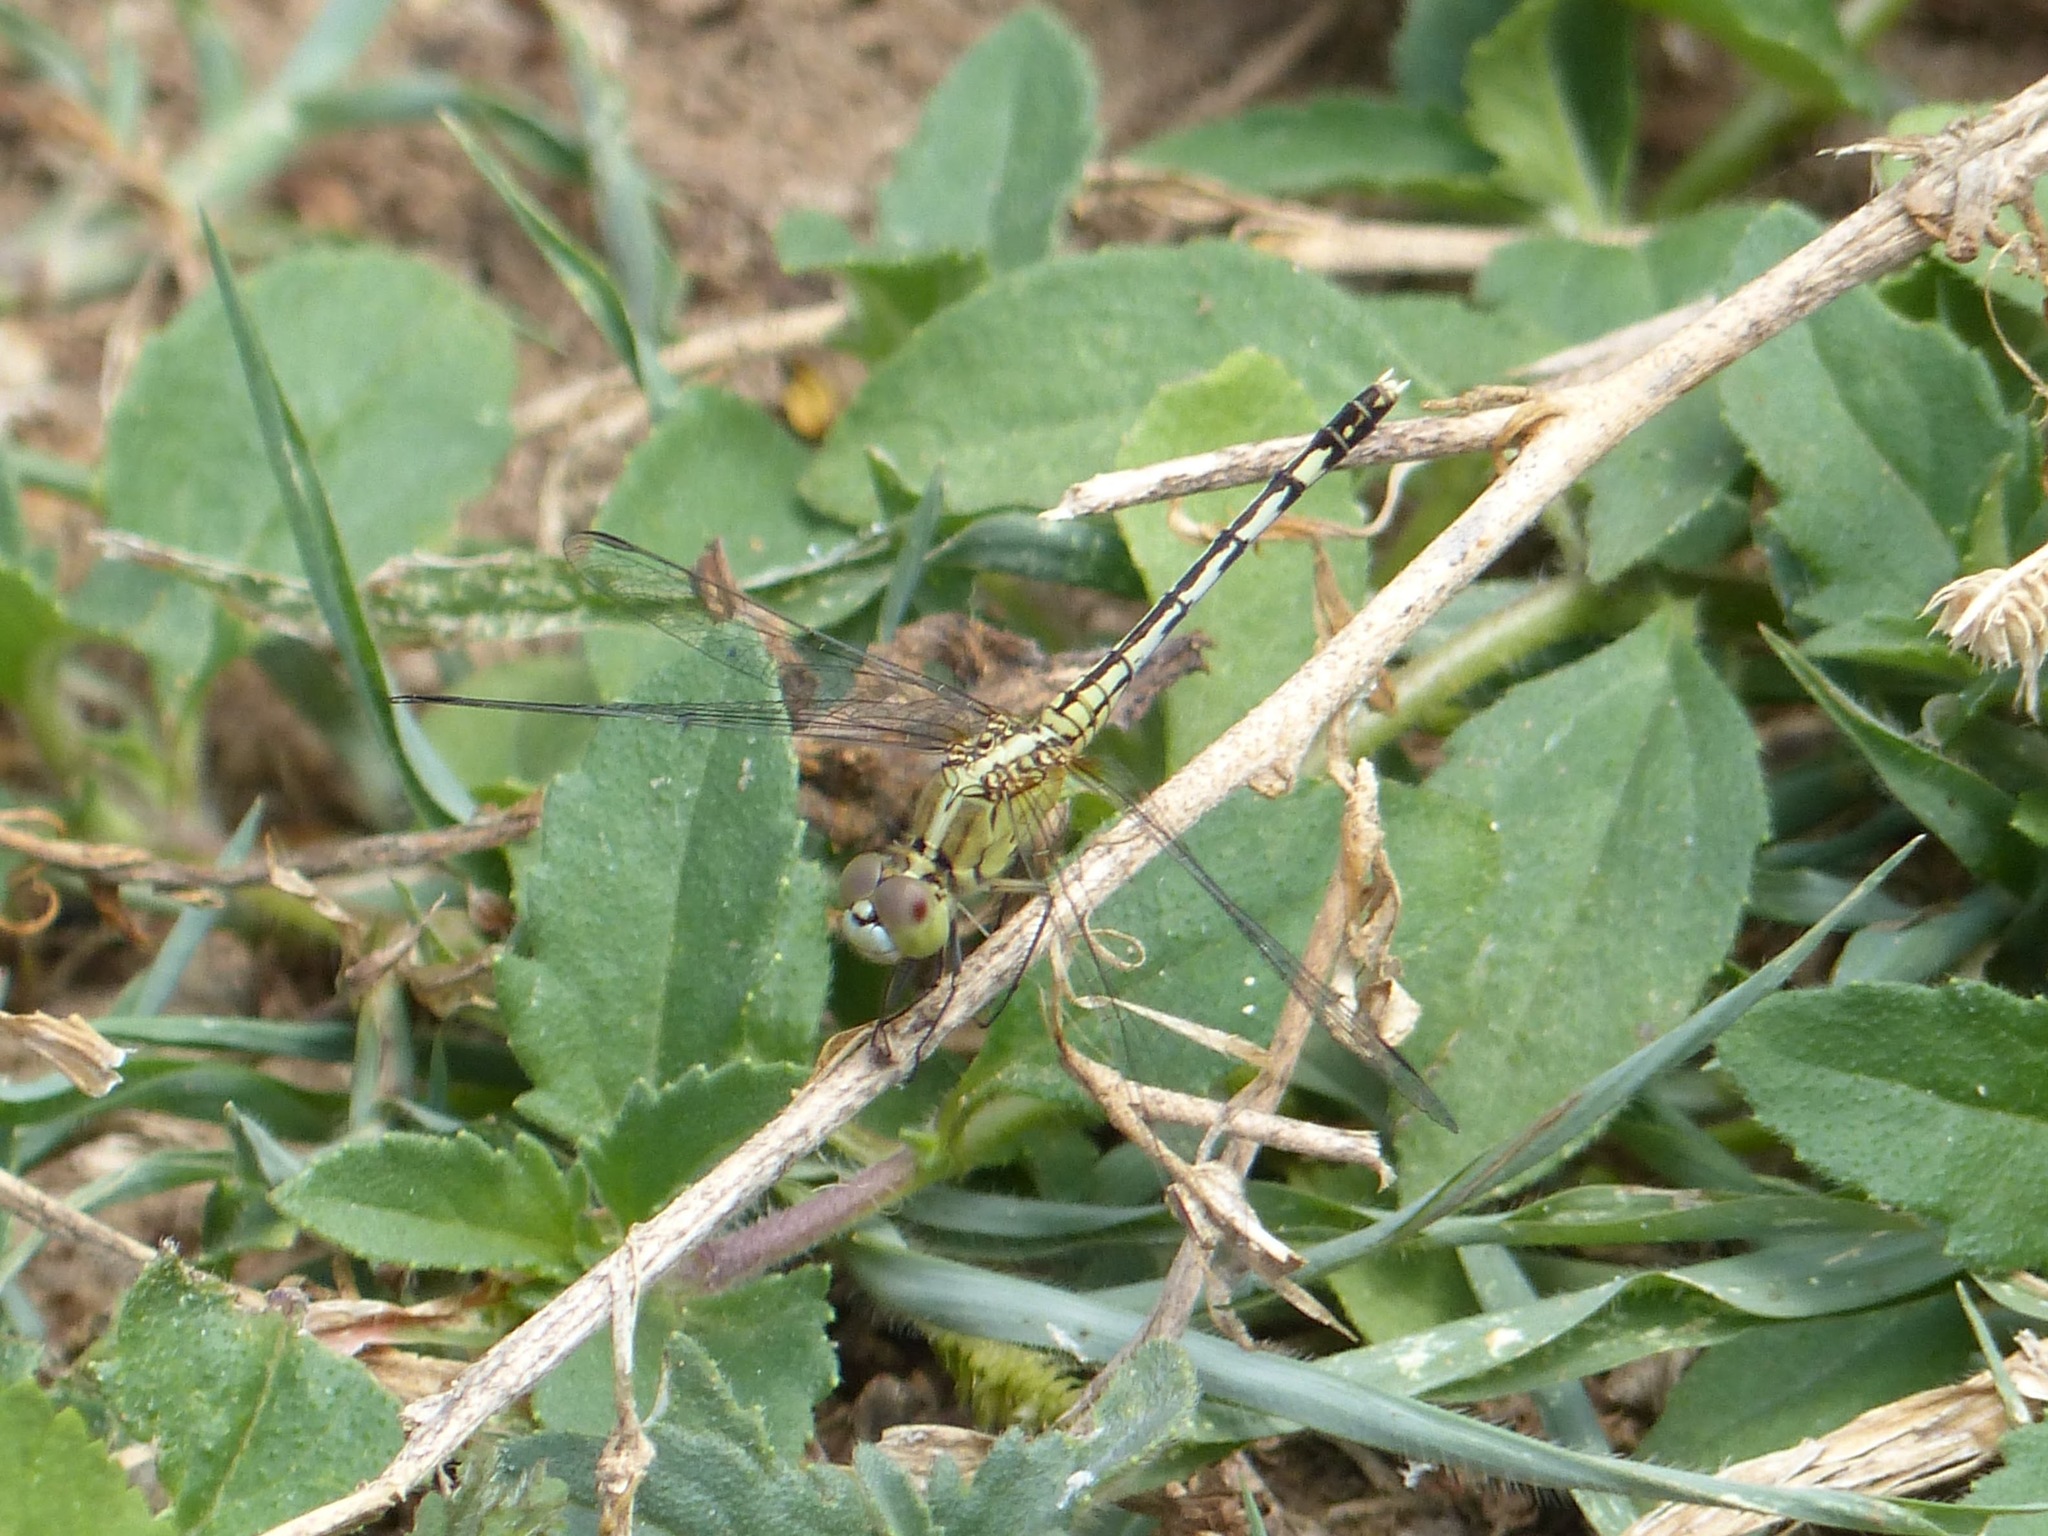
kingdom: Animalia
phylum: Arthropoda
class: Insecta
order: Odonata
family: Libellulidae
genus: Diplacodes
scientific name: Diplacodes trivialis
